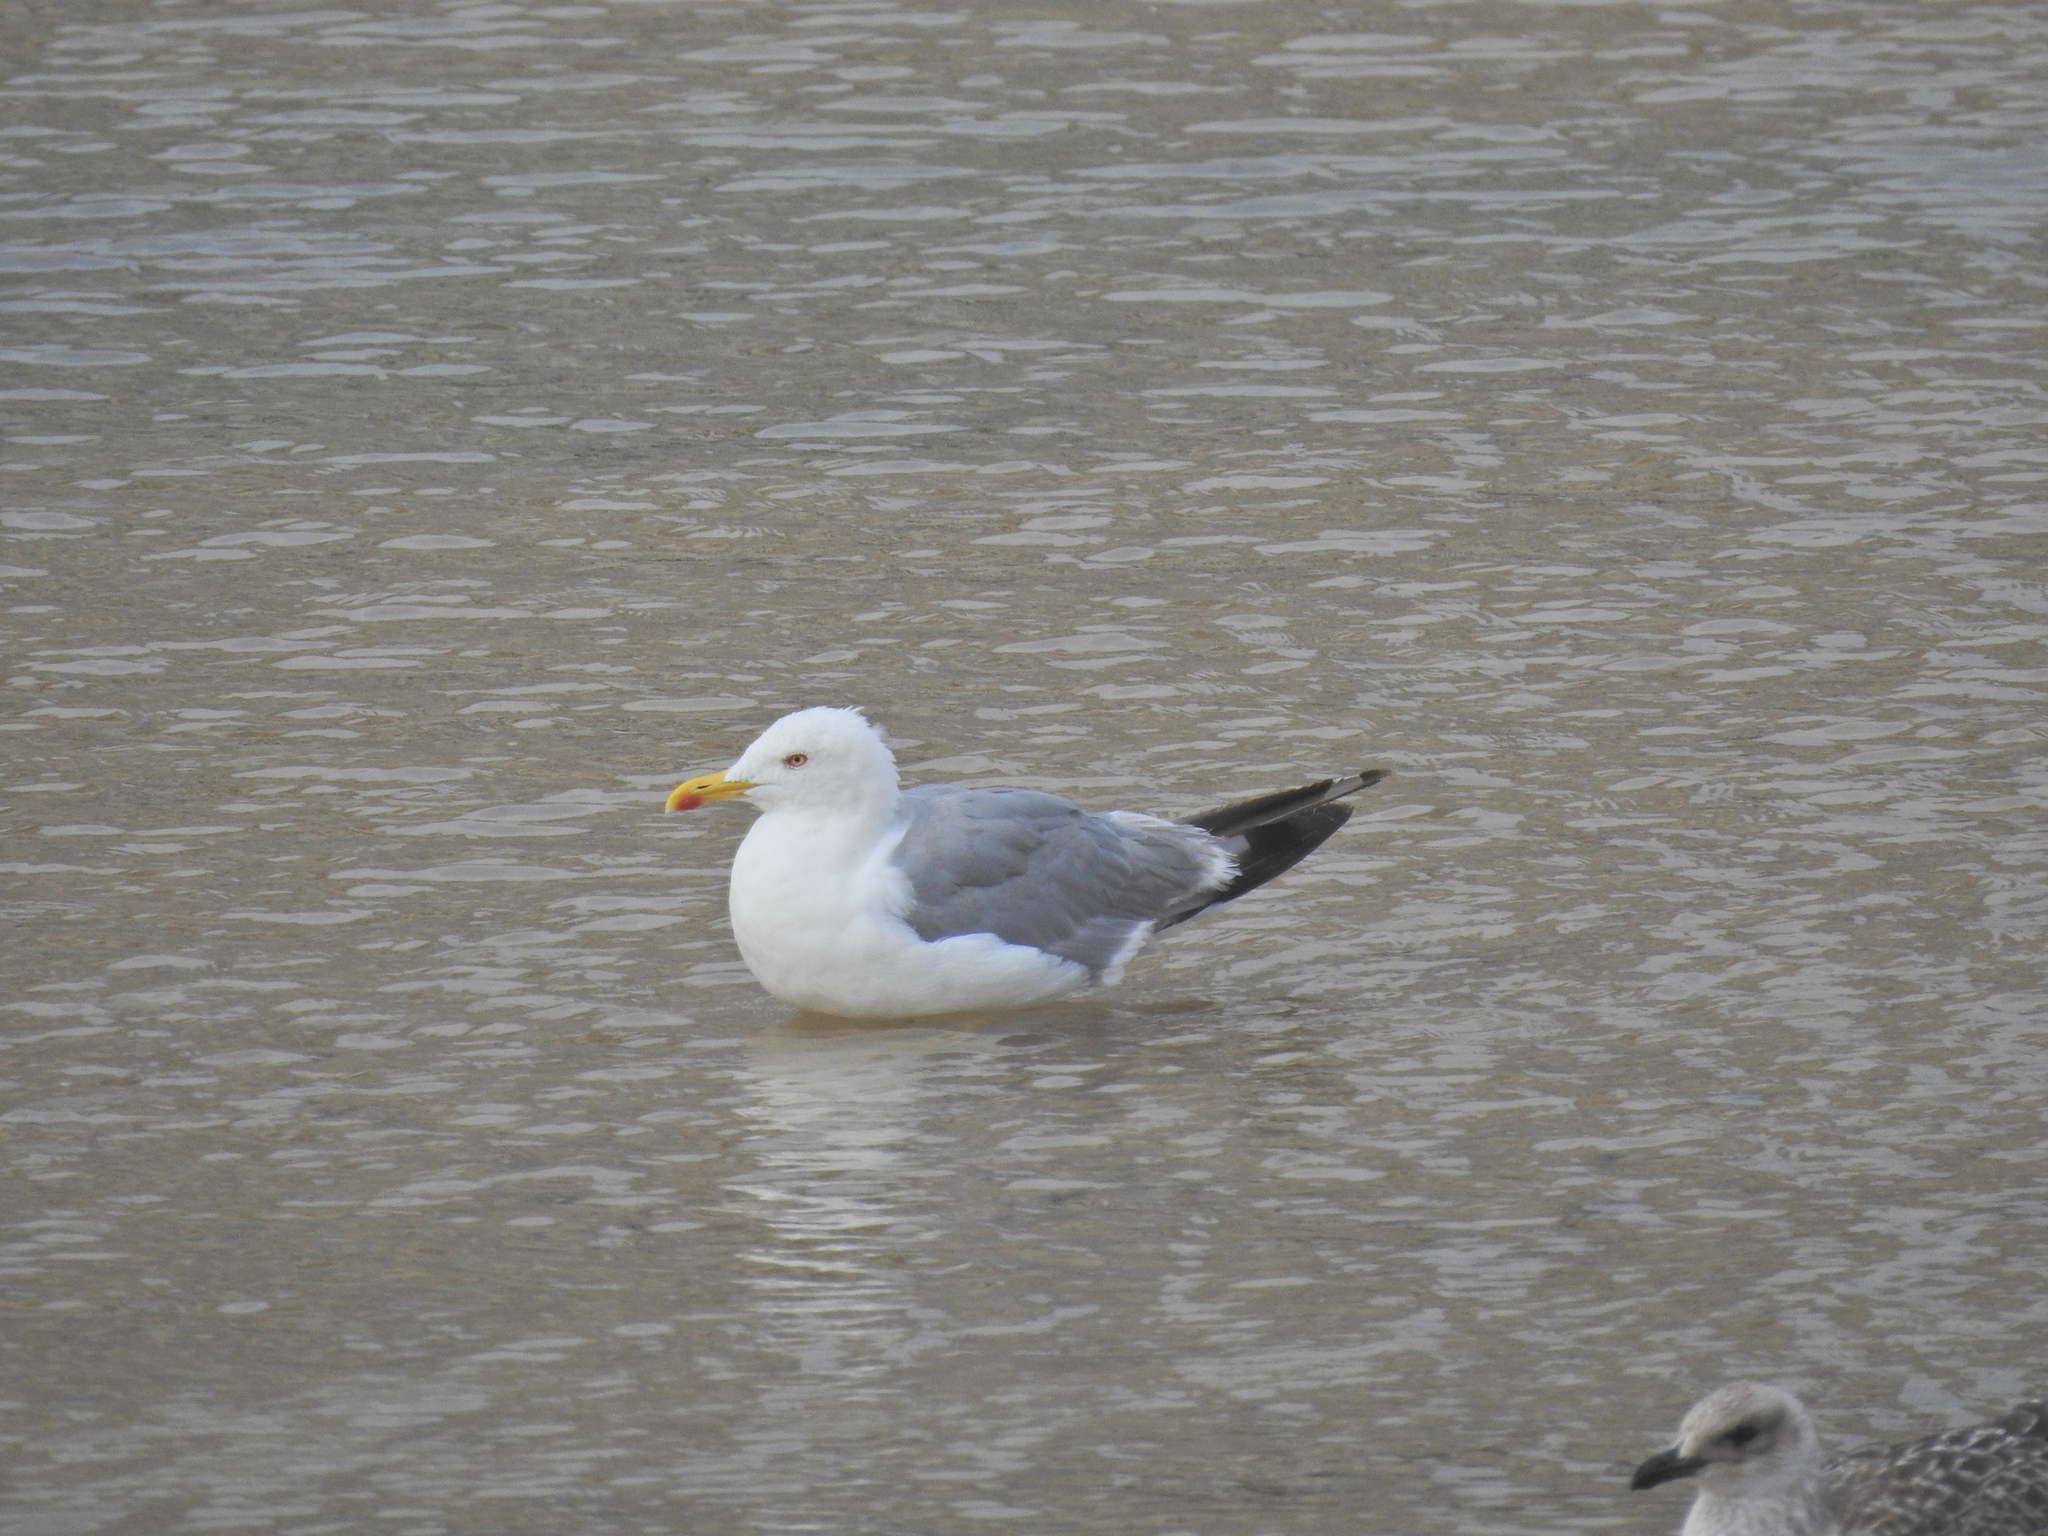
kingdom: Animalia
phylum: Chordata
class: Aves
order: Charadriiformes
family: Laridae
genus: Larus
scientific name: Larus michahellis
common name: Yellow-legged gull
